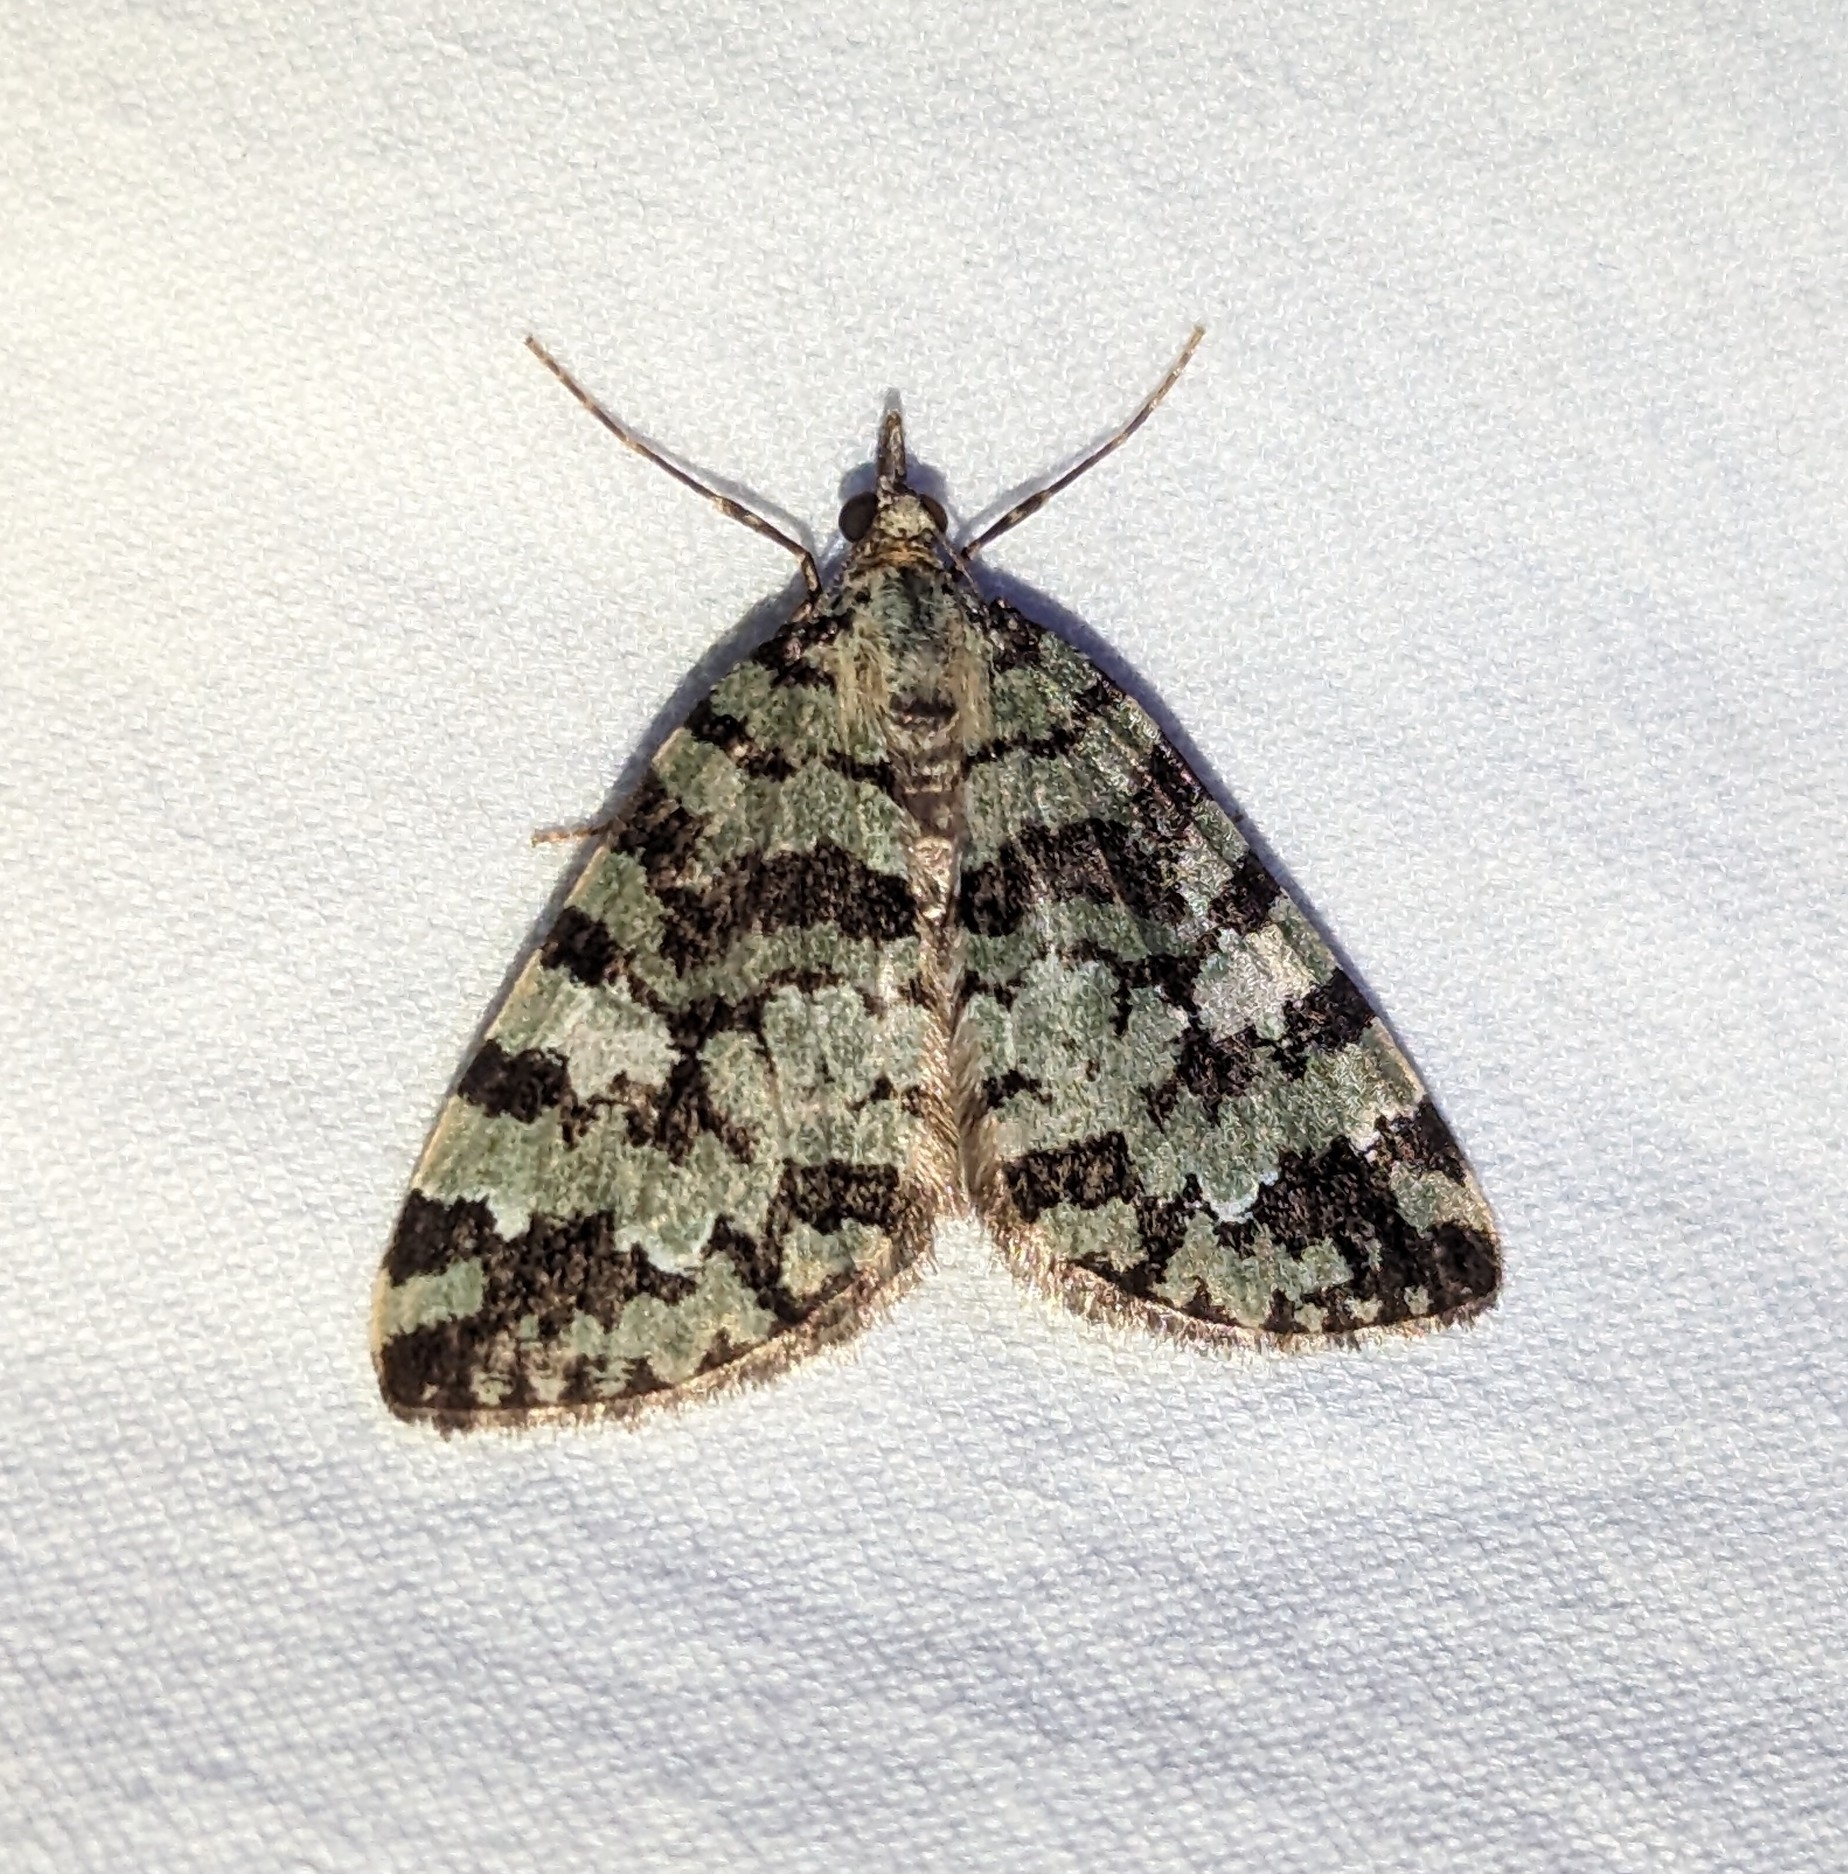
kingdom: Animalia
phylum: Arthropoda
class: Insecta
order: Lepidoptera
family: Geometridae
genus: Hydriomena
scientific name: Hydriomena speciosata
